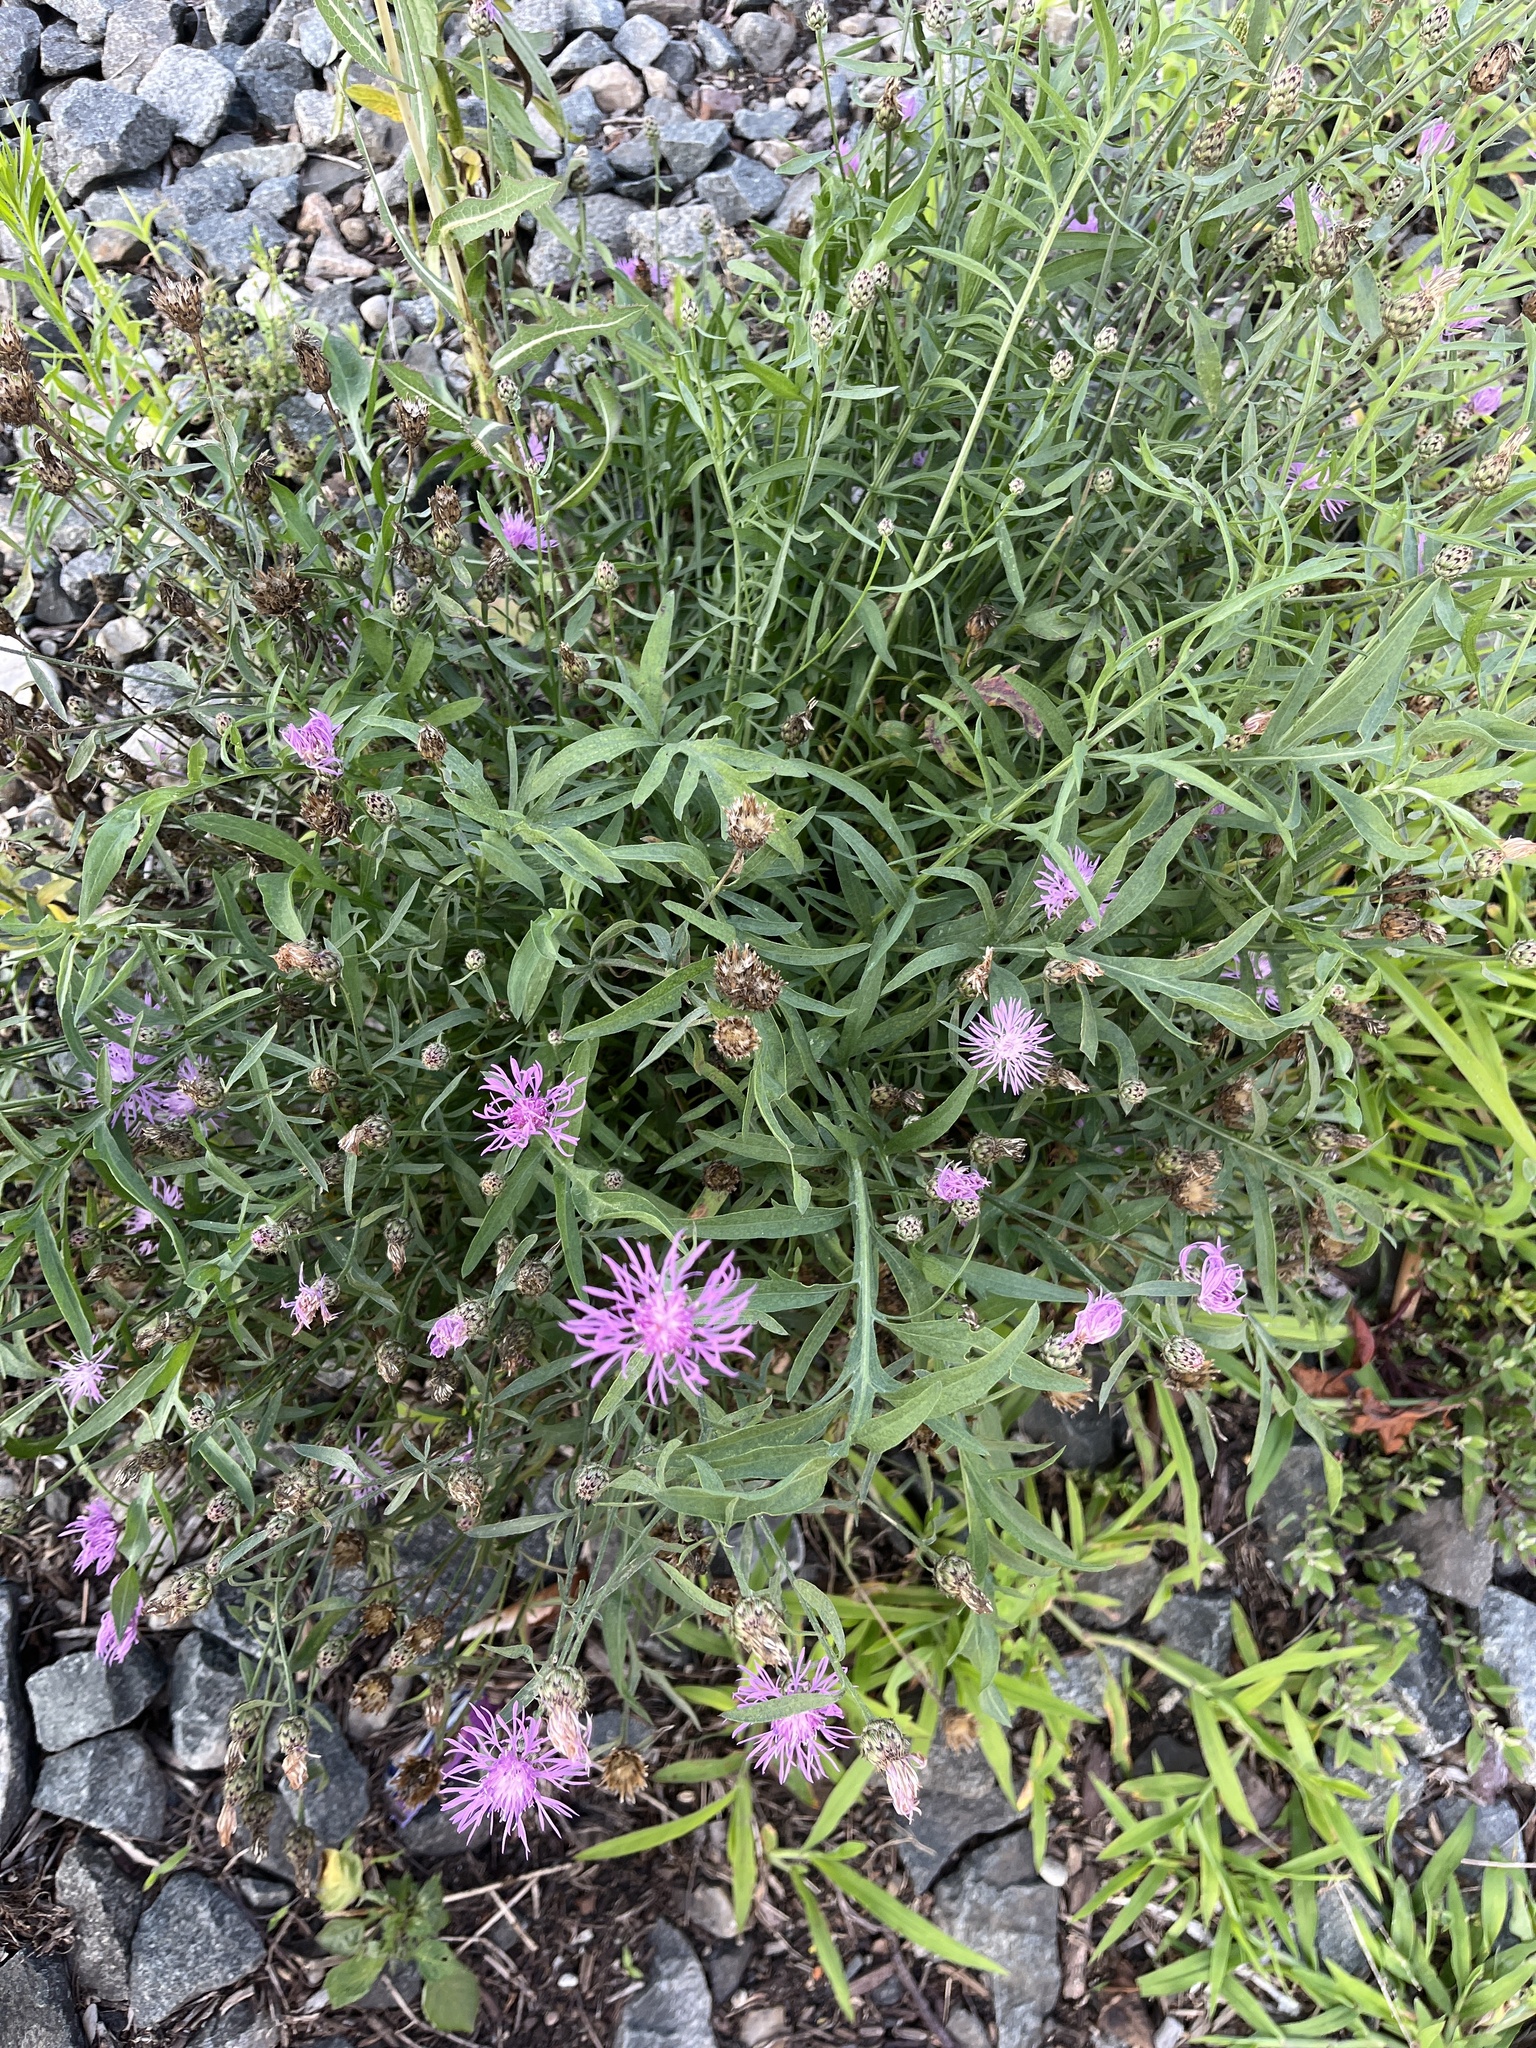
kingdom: Plantae
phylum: Tracheophyta
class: Magnoliopsida
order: Asterales
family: Asteraceae
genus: Centaurea
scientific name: Centaurea stoebe
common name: Spotted knapweed
